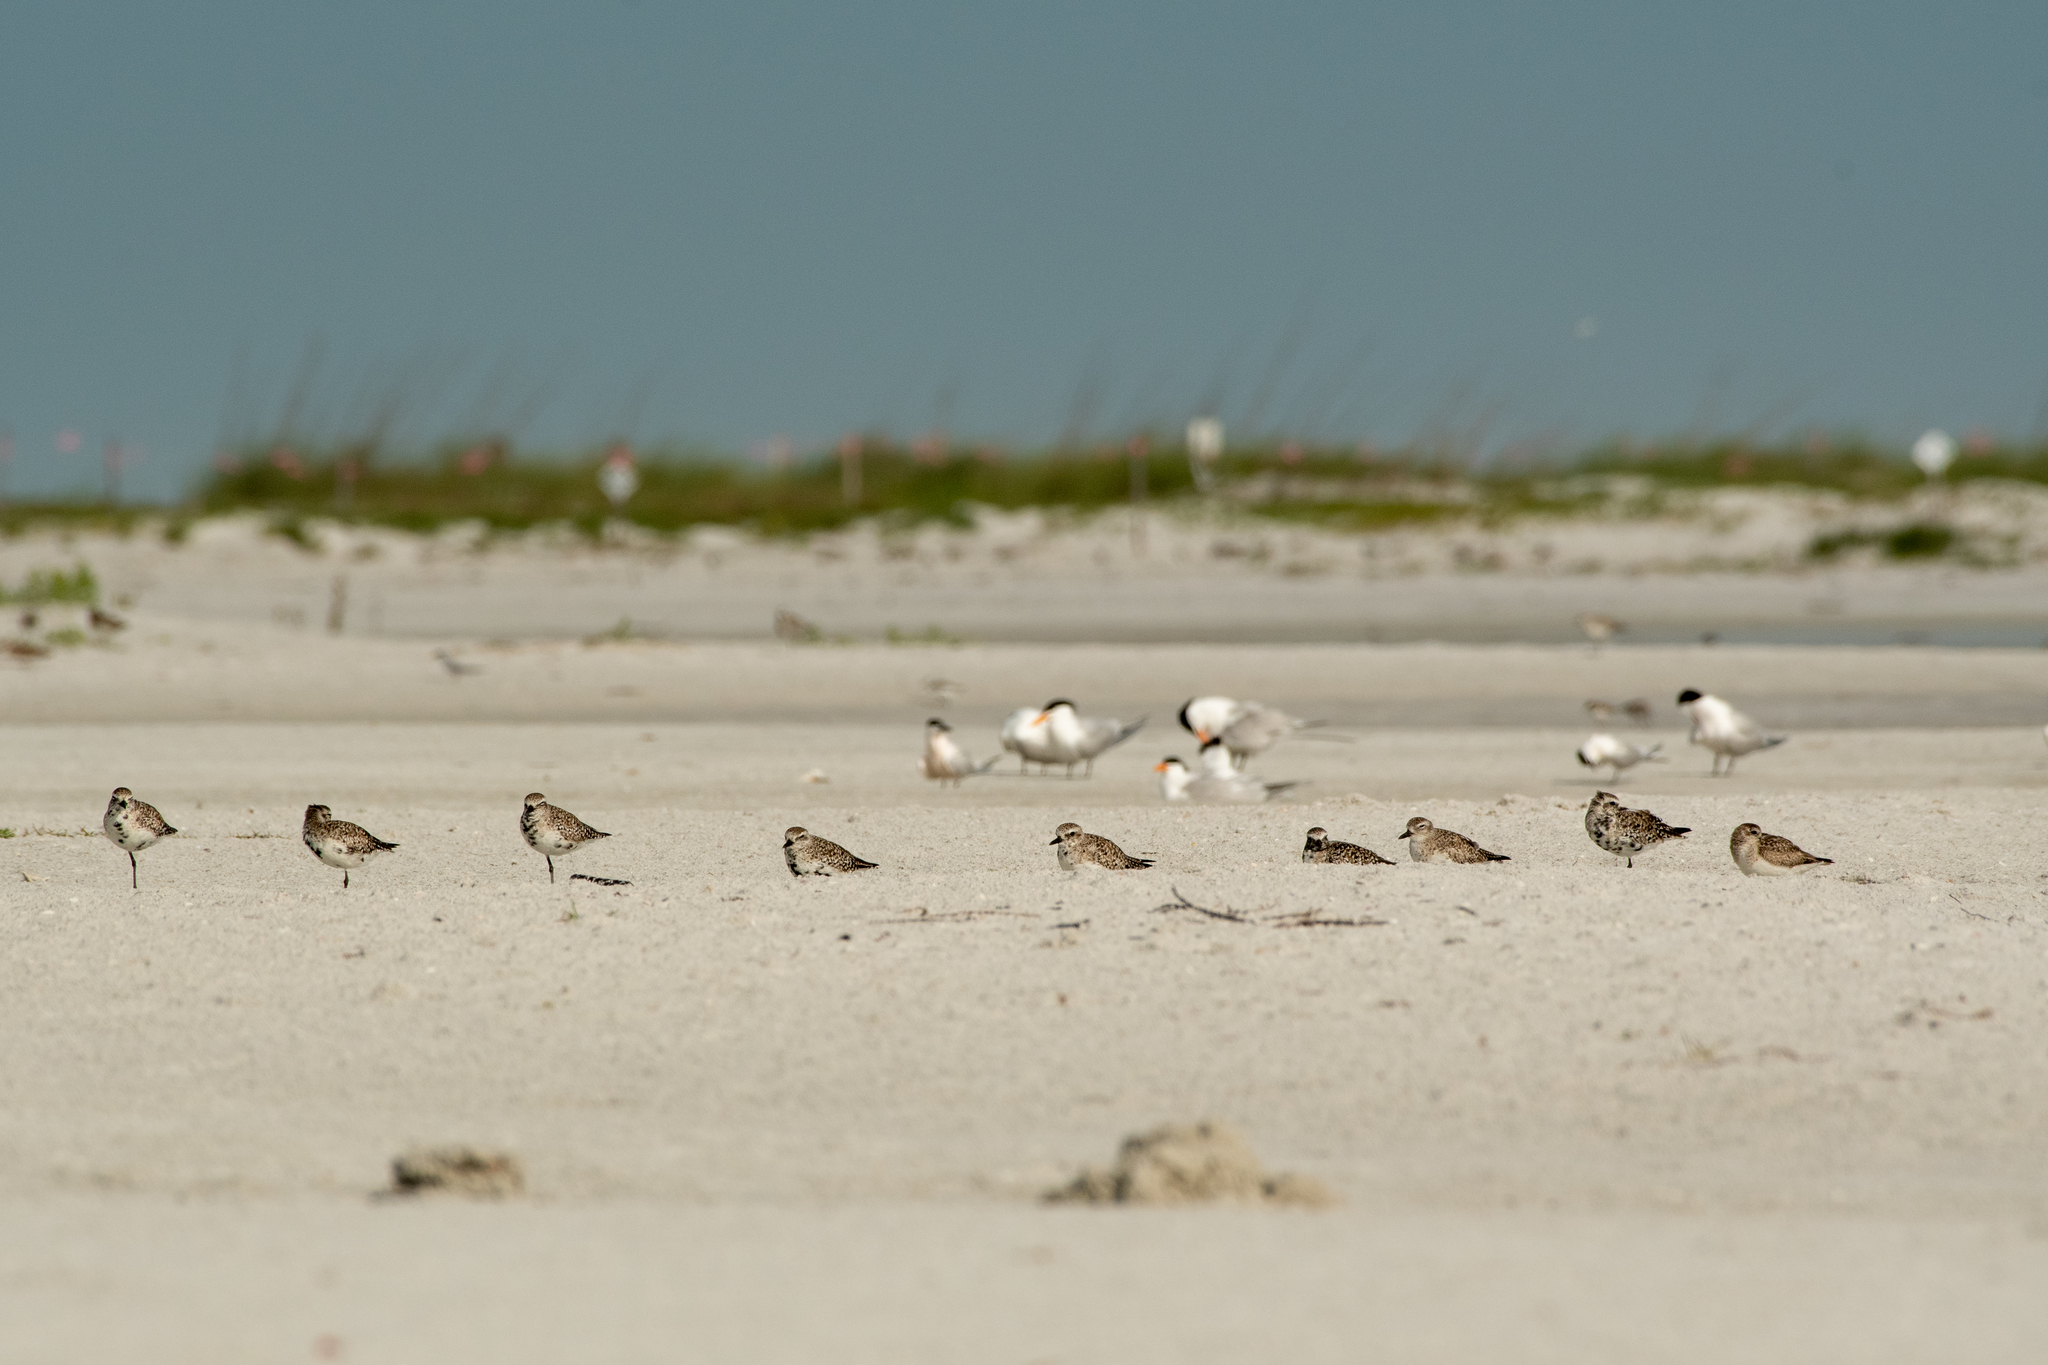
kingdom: Animalia
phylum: Chordata
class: Aves
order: Charadriiformes
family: Charadriidae
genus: Pluvialis
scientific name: Pluvialis squatarola
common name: Grey plover
